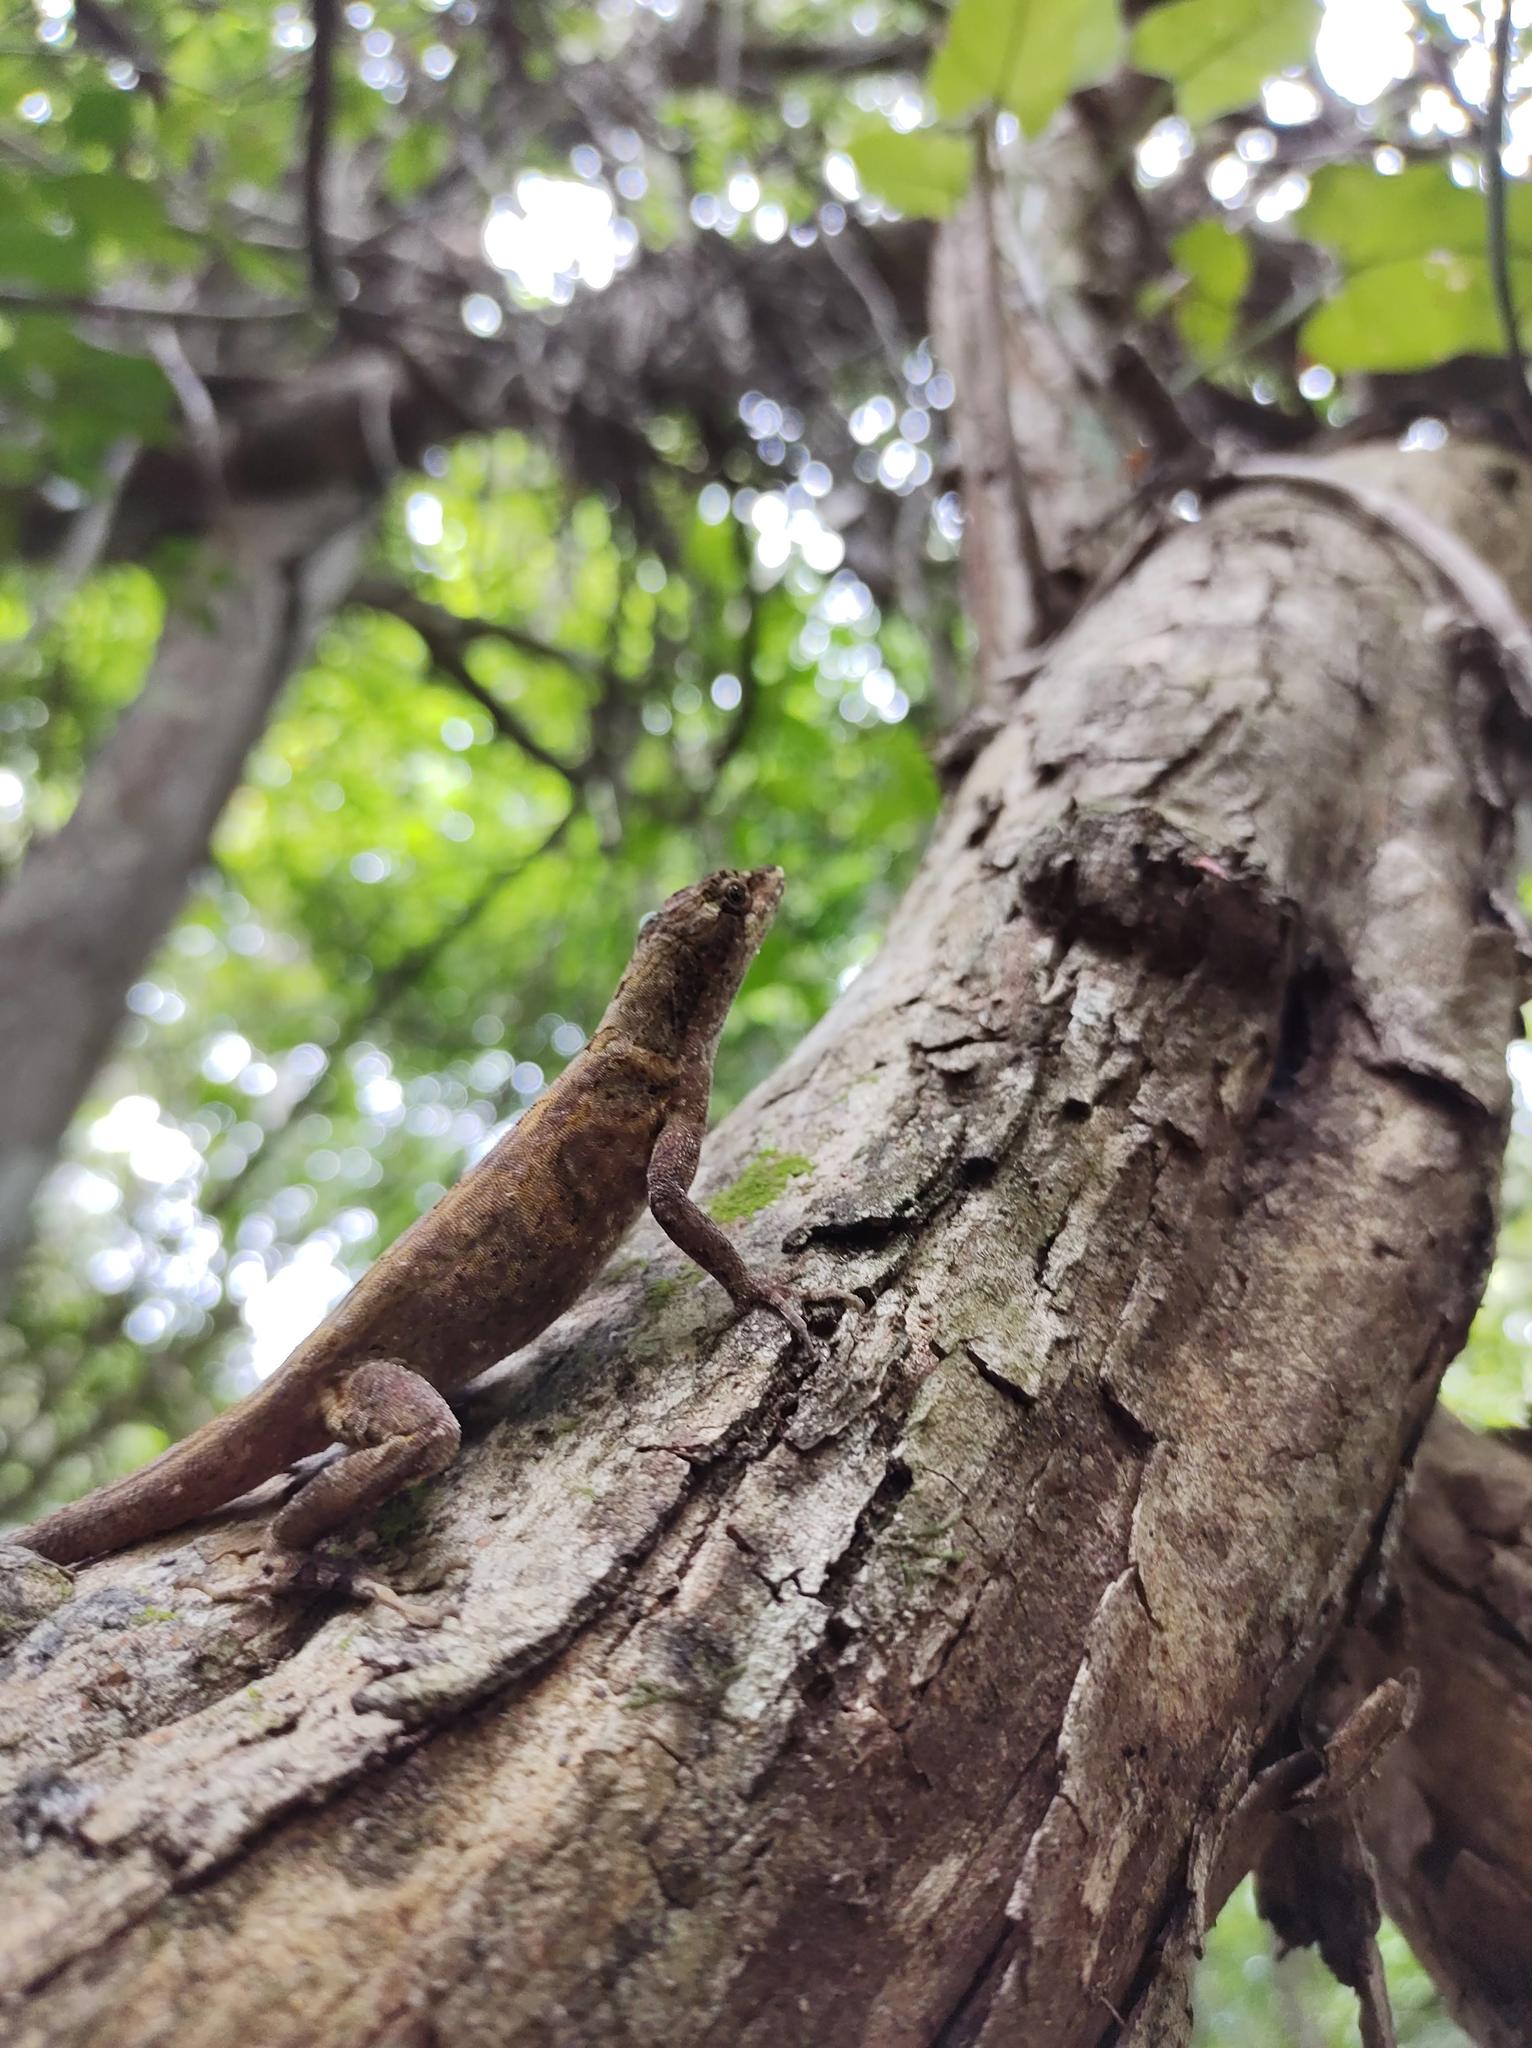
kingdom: Animalia
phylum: Chordata
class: Squamata
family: Dactyloidae
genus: Anolis
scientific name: Anolis lemurinus
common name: Ghost anole
